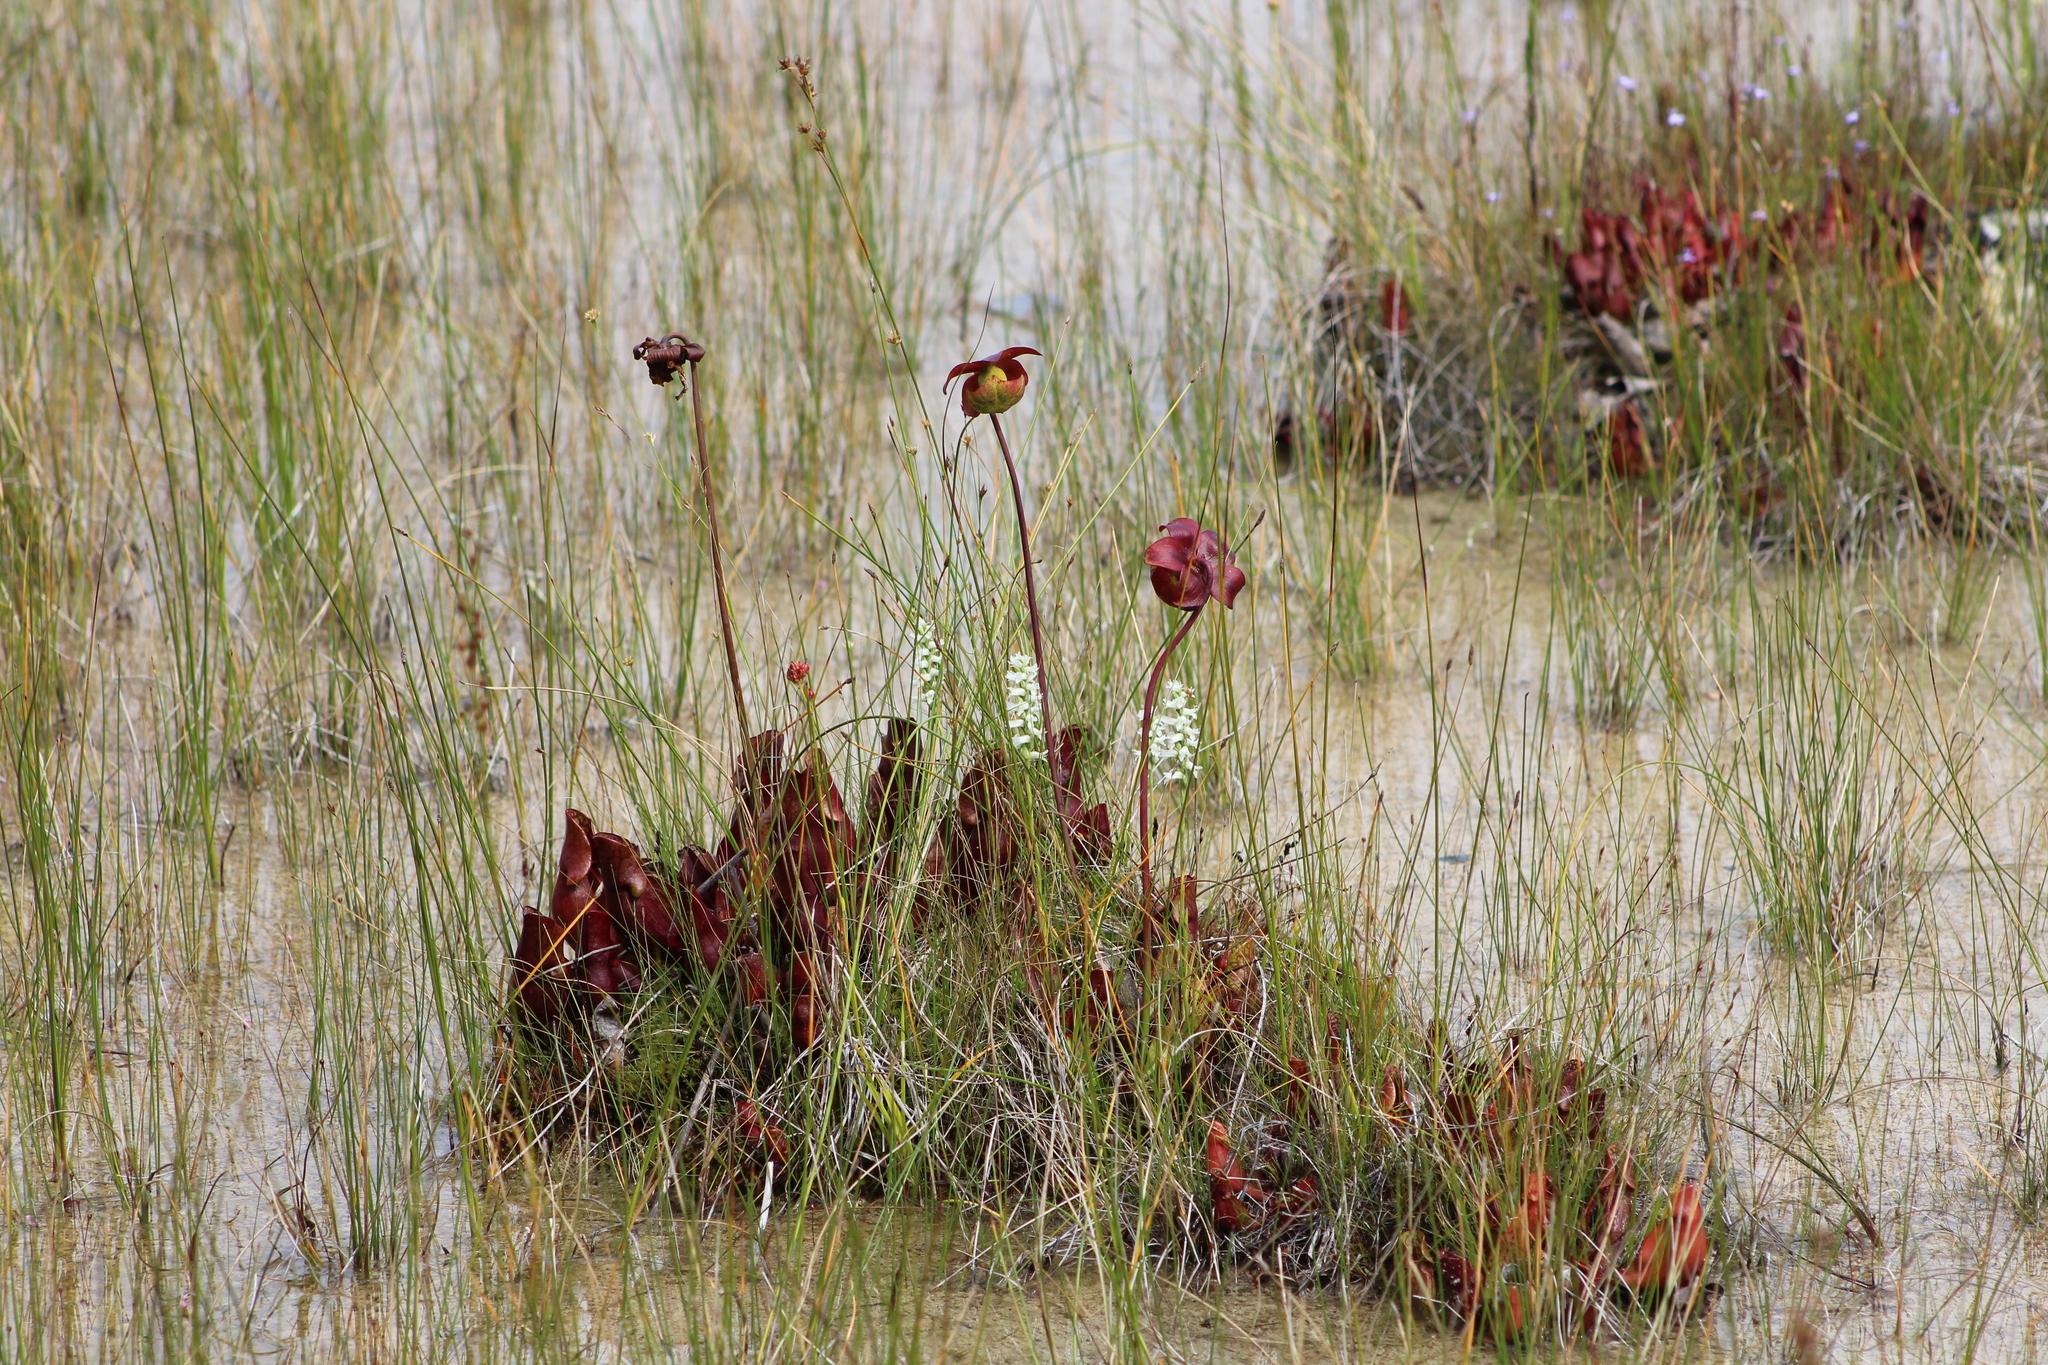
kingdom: Plantae
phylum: Tracheophyta
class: Magnoliopsida
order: Ericales
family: Sarraceniaceae
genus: Sarracenia
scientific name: Sarracenia purpurea
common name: Pitcherplant
